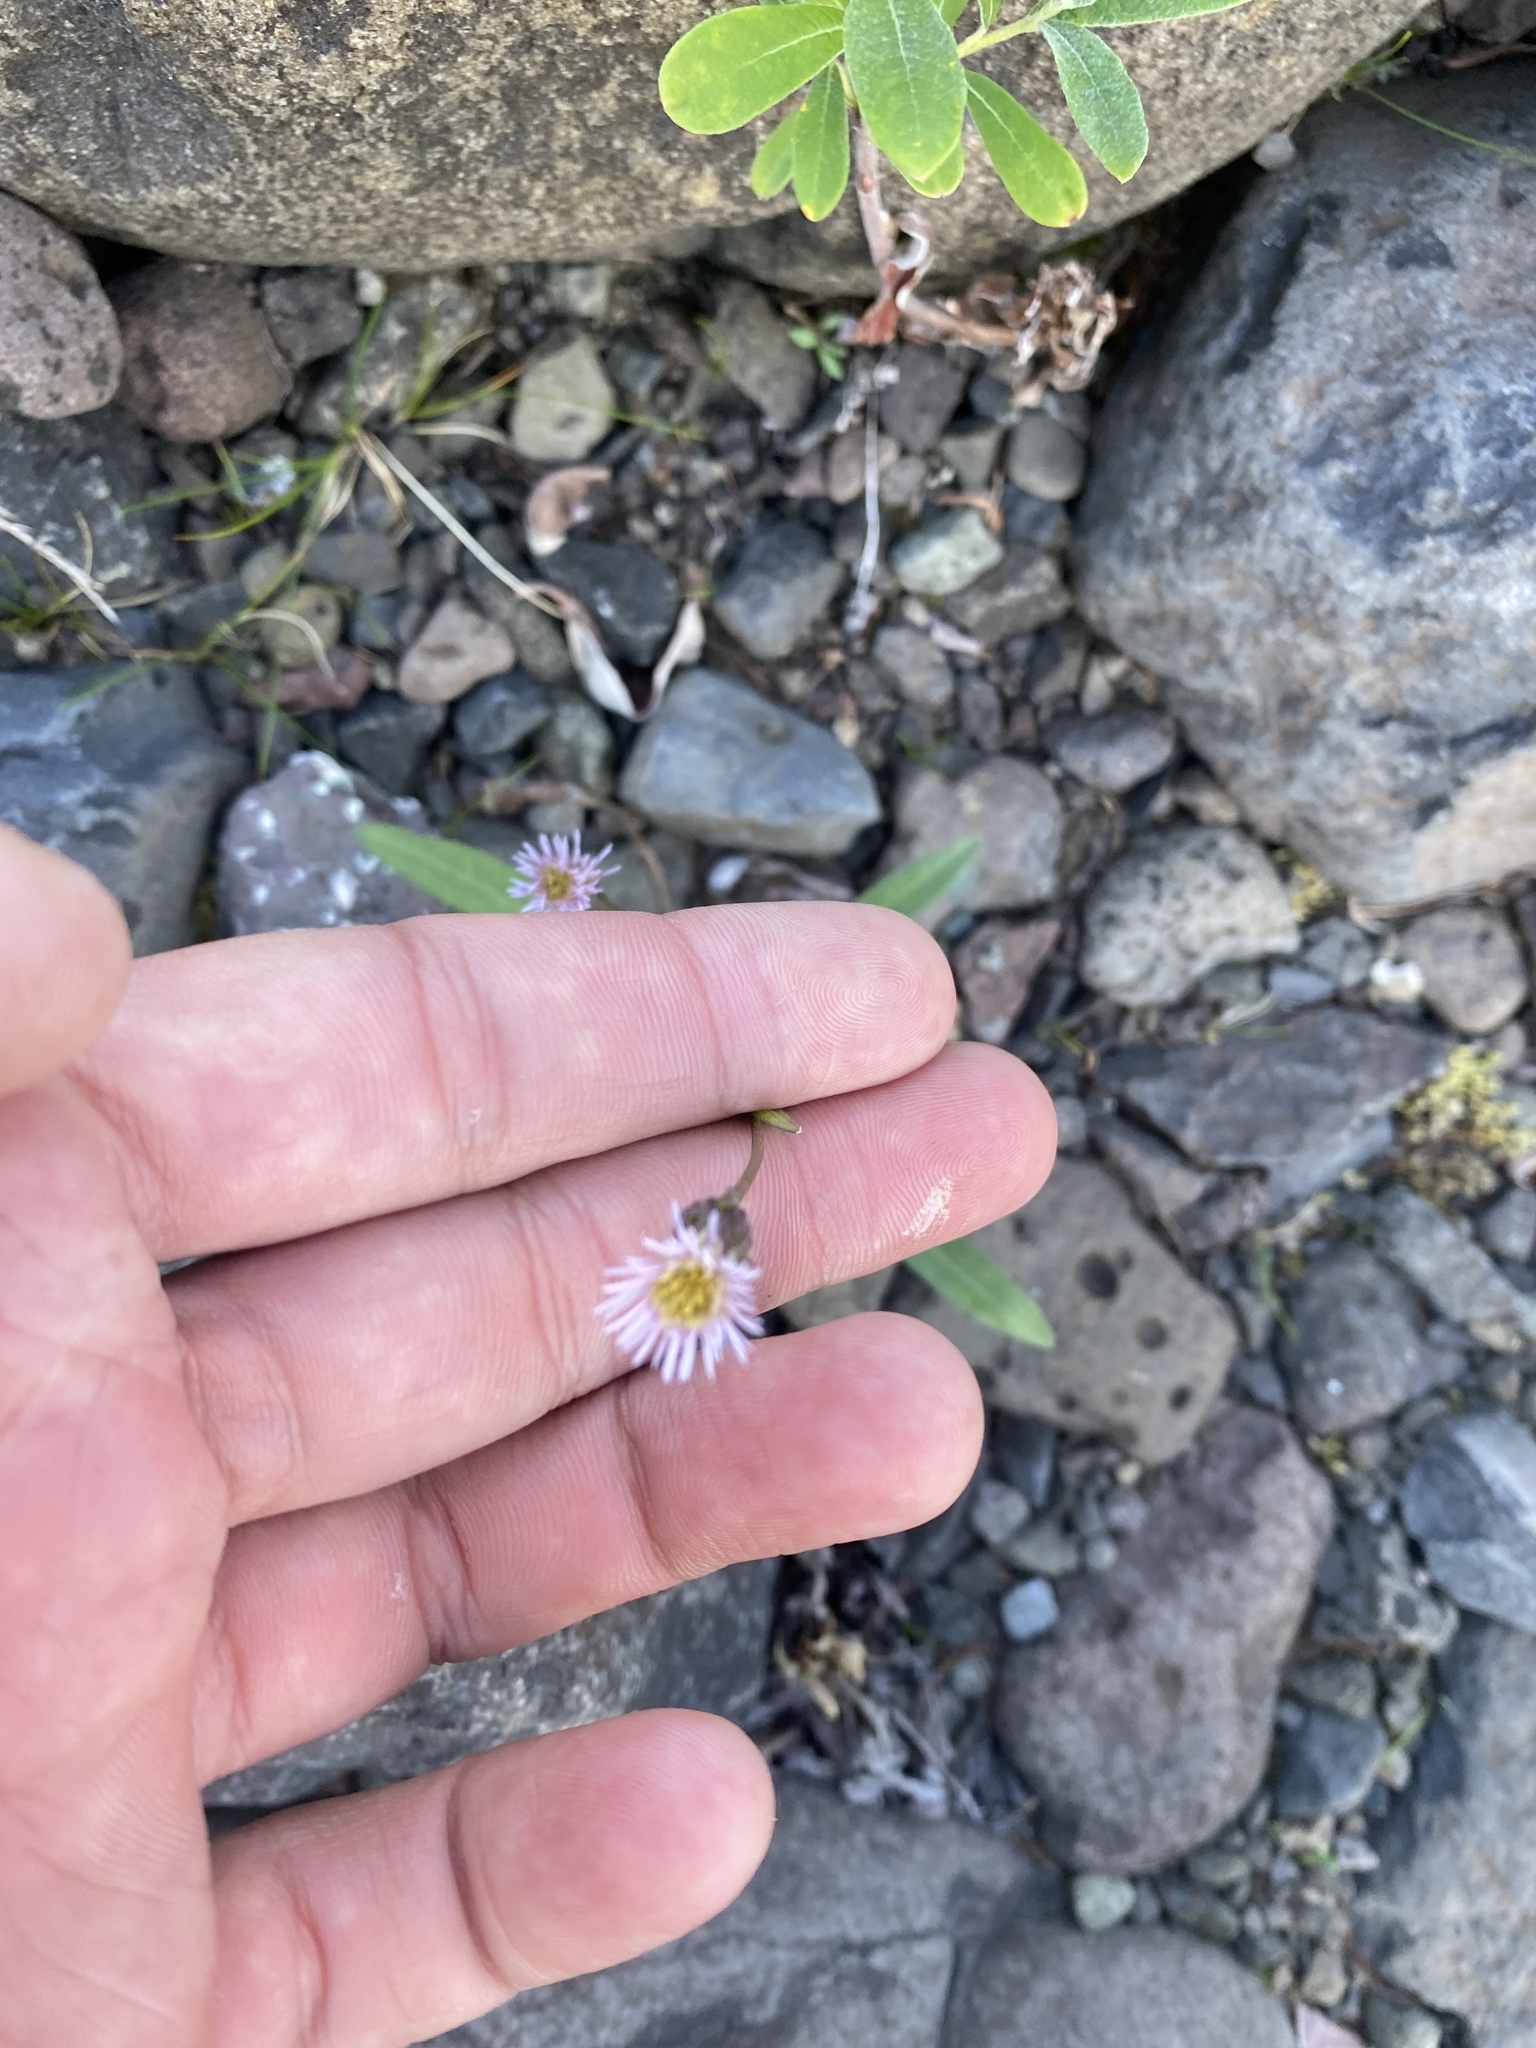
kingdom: Plantae
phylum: Tracheophyta
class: Magnoliopsida
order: Asterales
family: Asteraceae
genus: Erigeron
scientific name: Erigeron acris
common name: Blue fleabane
